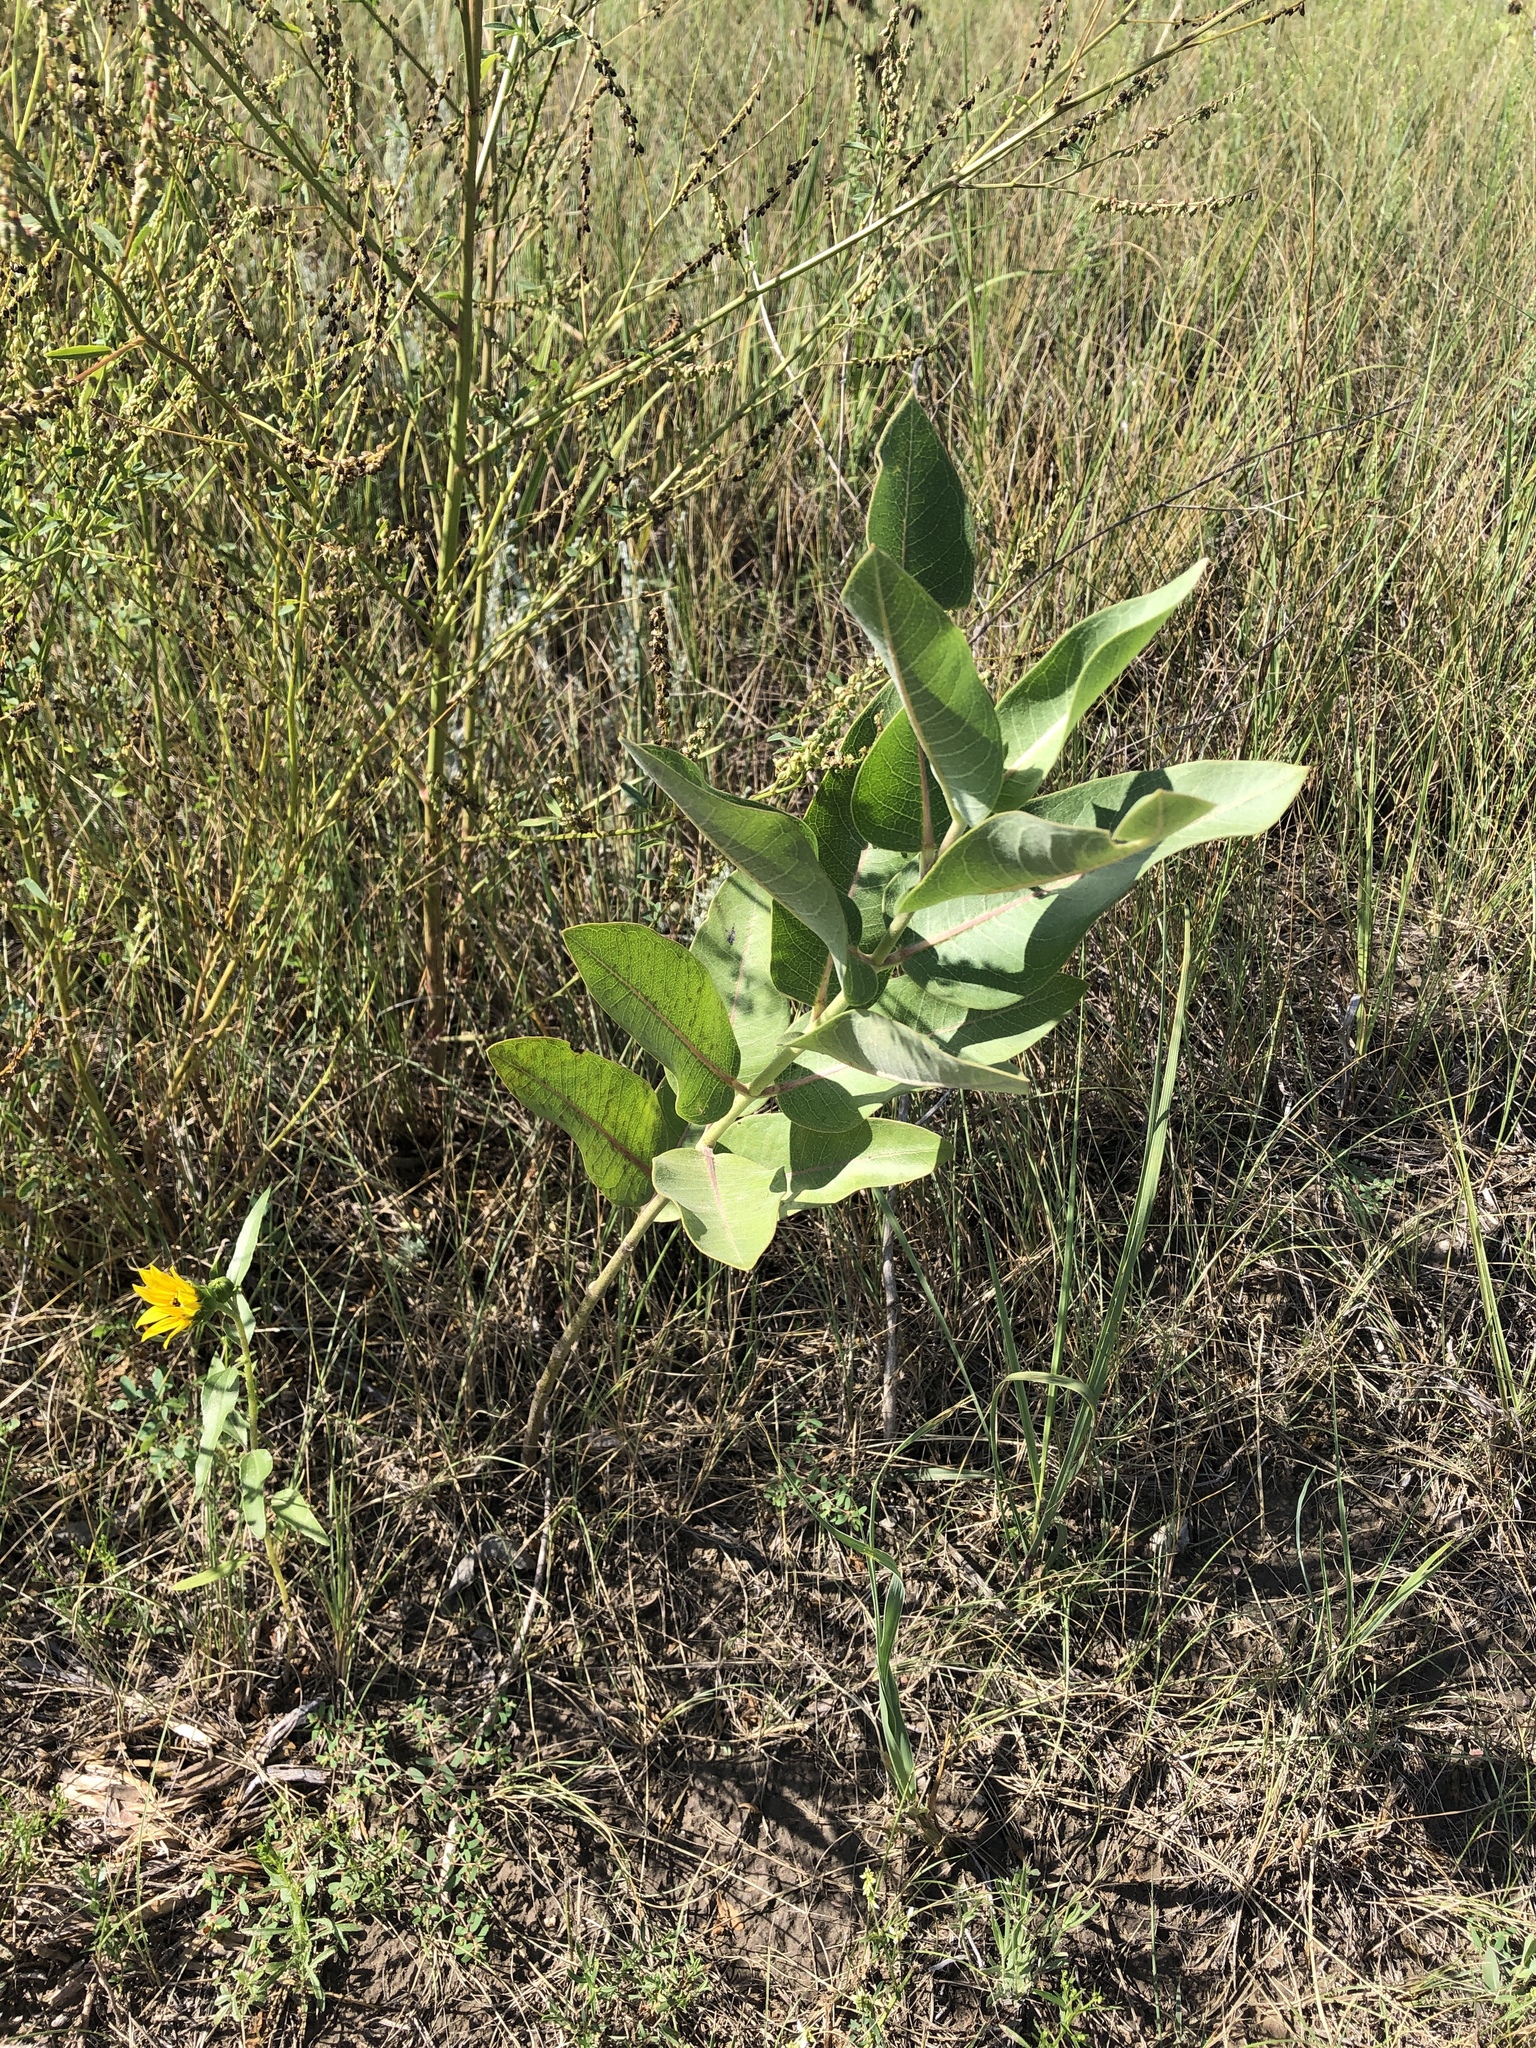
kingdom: Plantae
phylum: Tracheophyta
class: Magnoliopsida
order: Gentianales
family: Apocynaceae
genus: Asclepias
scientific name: Asclepias speciosa
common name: Showy milkweed
